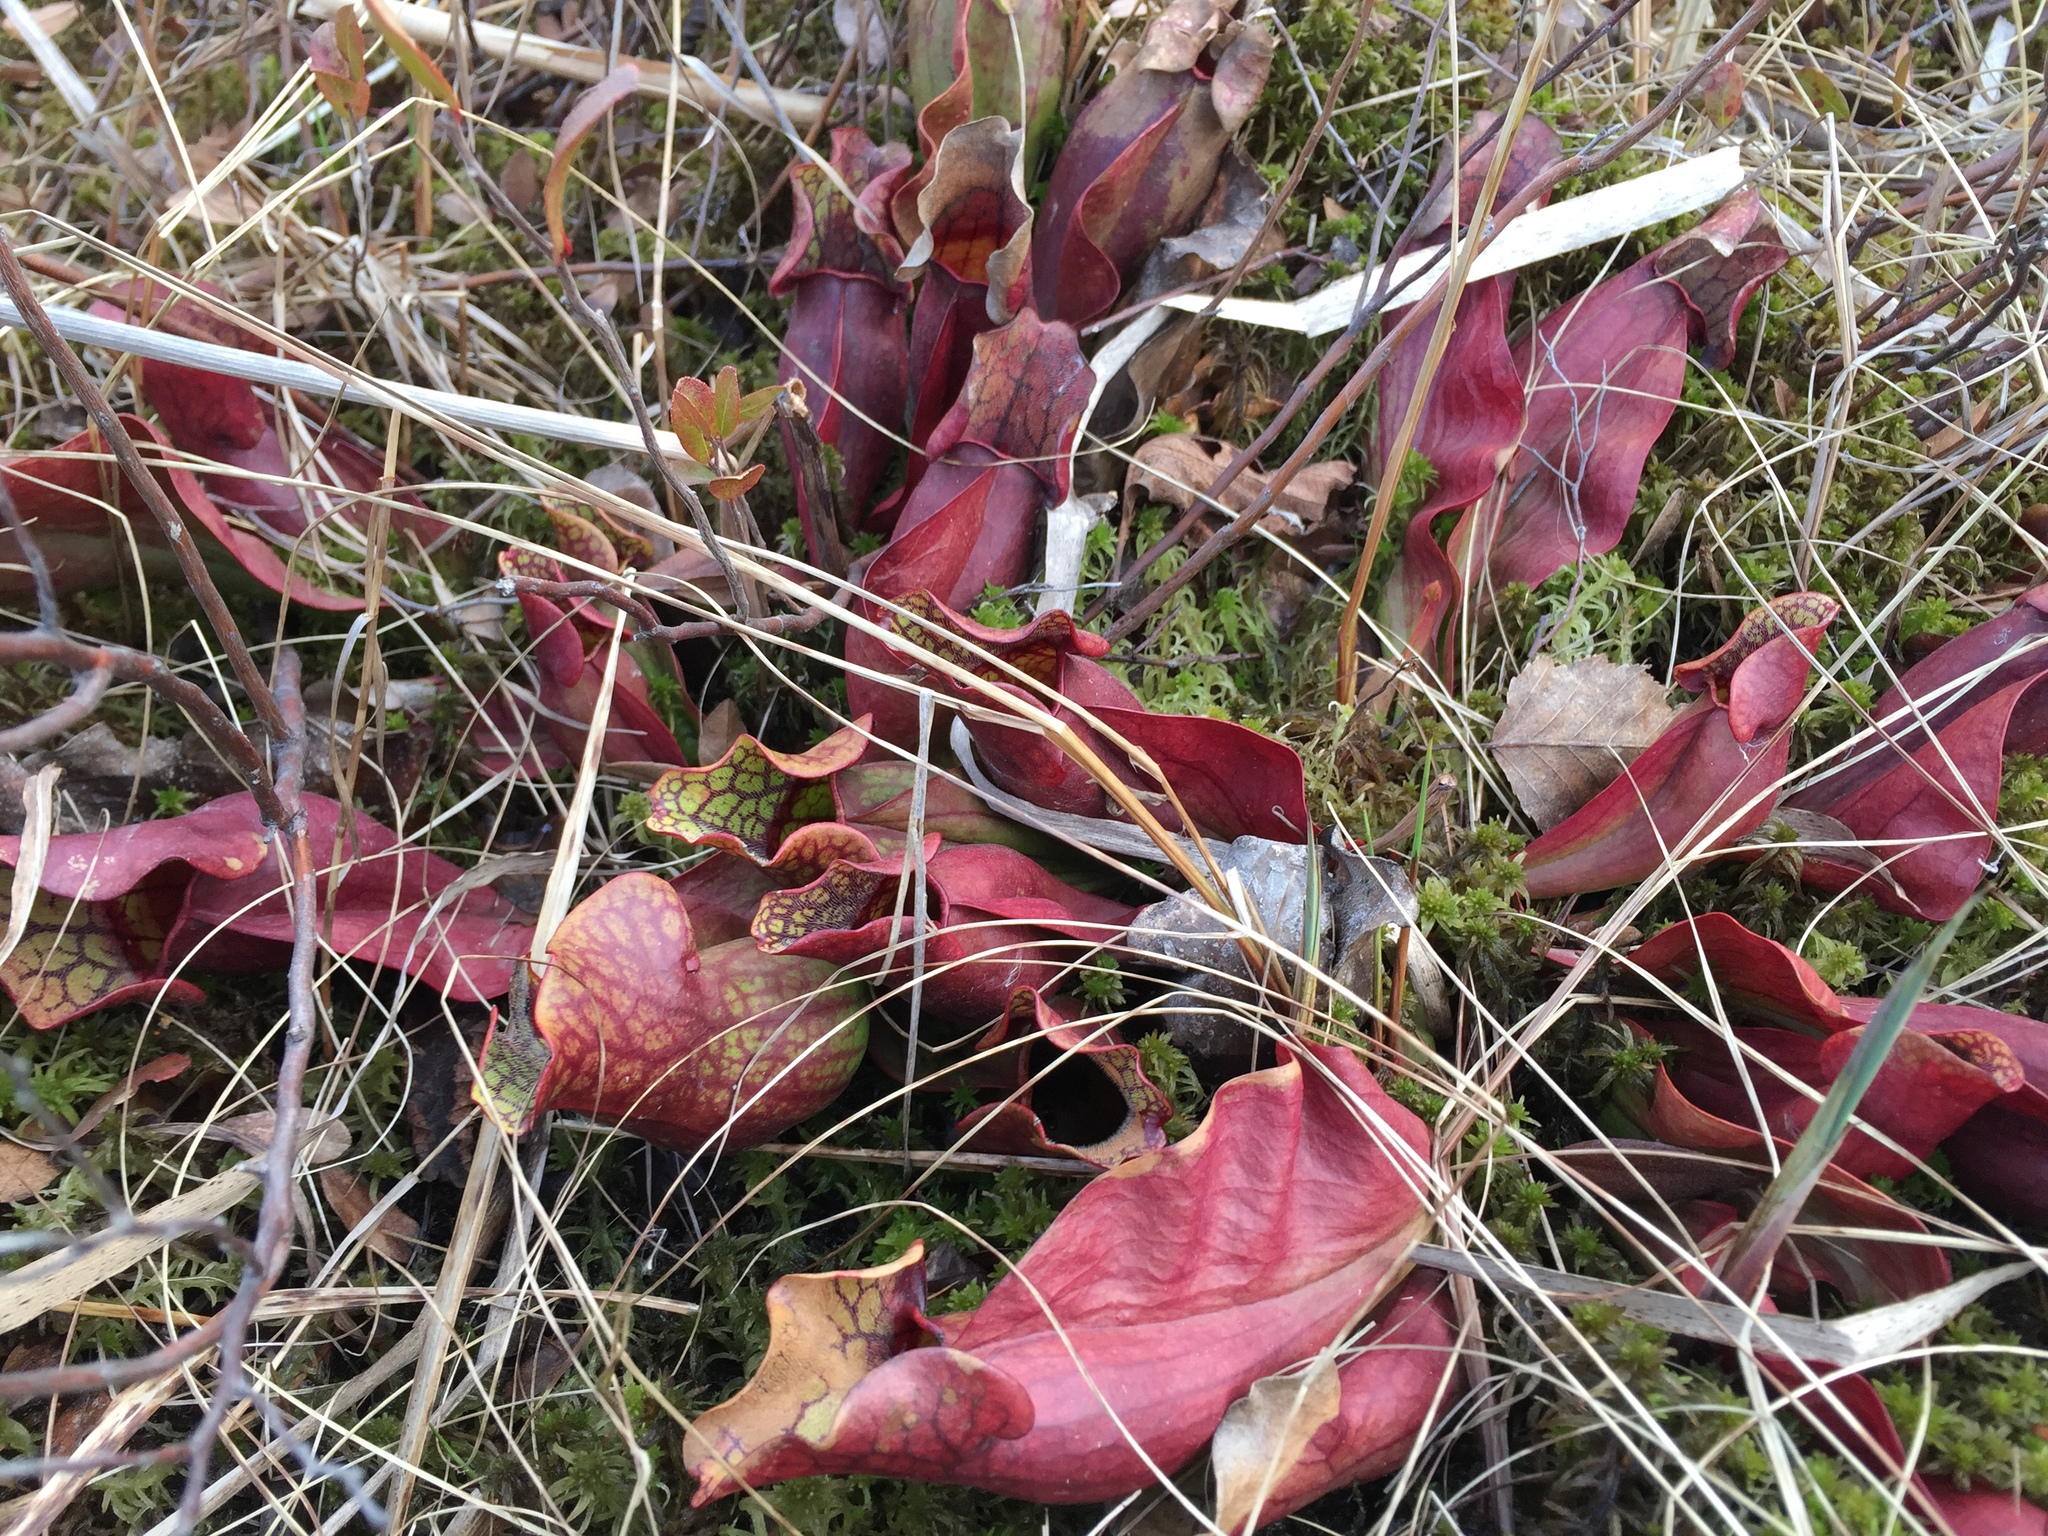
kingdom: Plantae
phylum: Tracheophyta
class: Magnoliopsida
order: Ericales
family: Sarraceniaceae
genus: Sarracenia
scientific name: Sarracenia purpurea
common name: Pitcherplant
